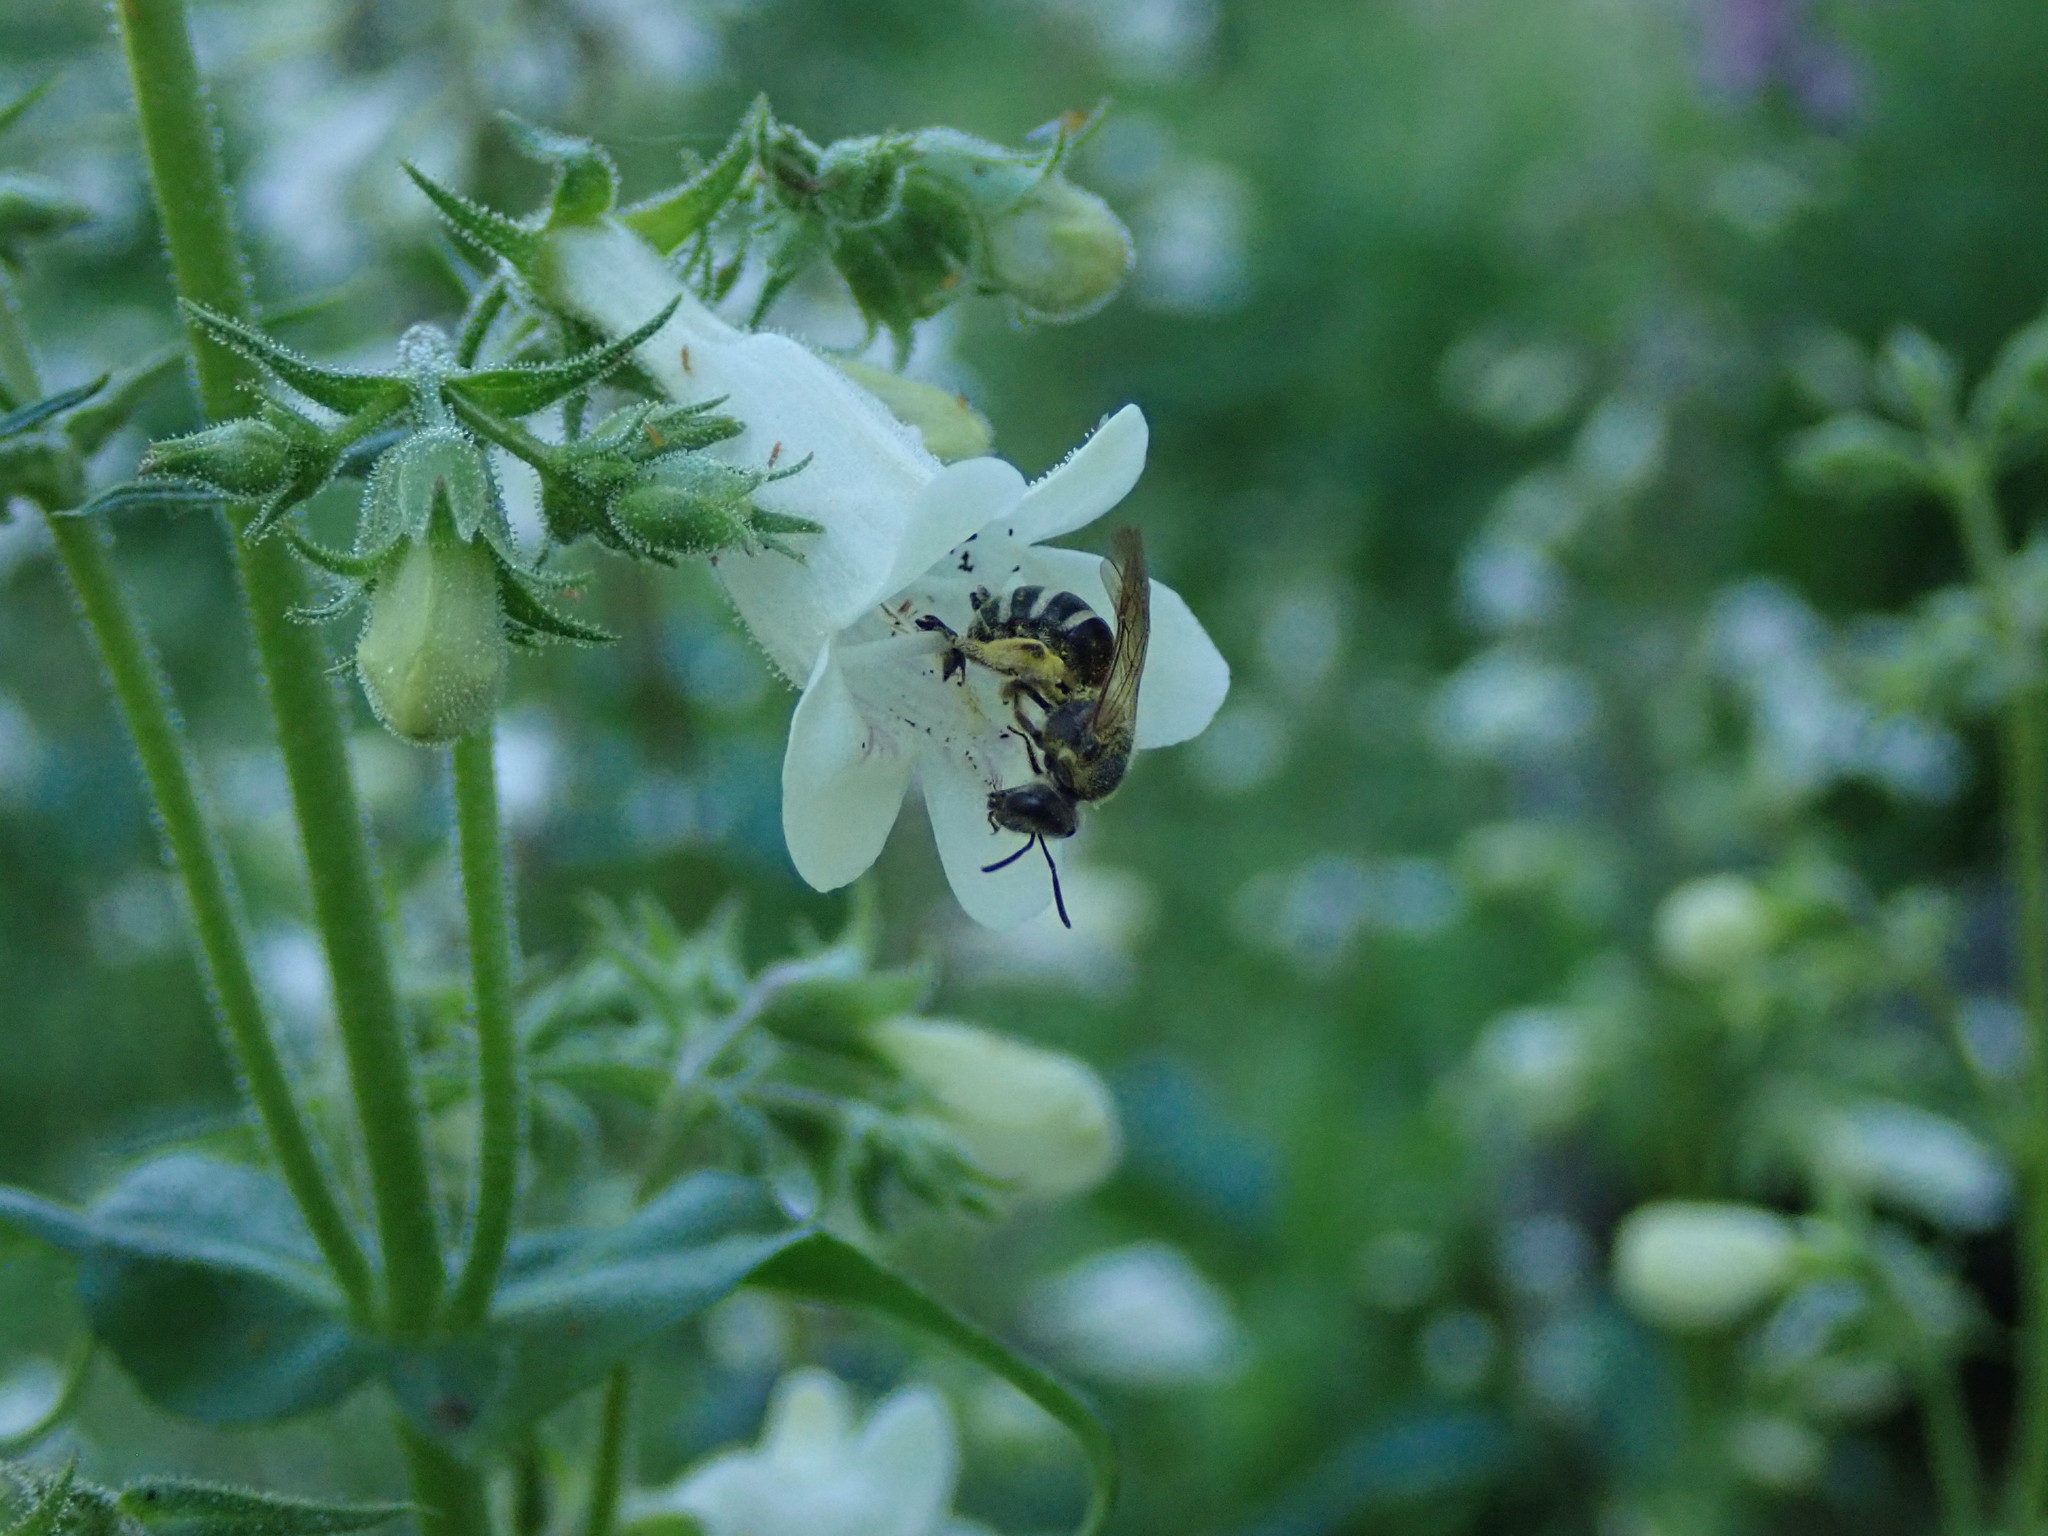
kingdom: Animalia
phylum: Arthropoda
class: Insecta
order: Hymenoptera
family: Halictidae
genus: Lasioglossum
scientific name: Lasioglossum
